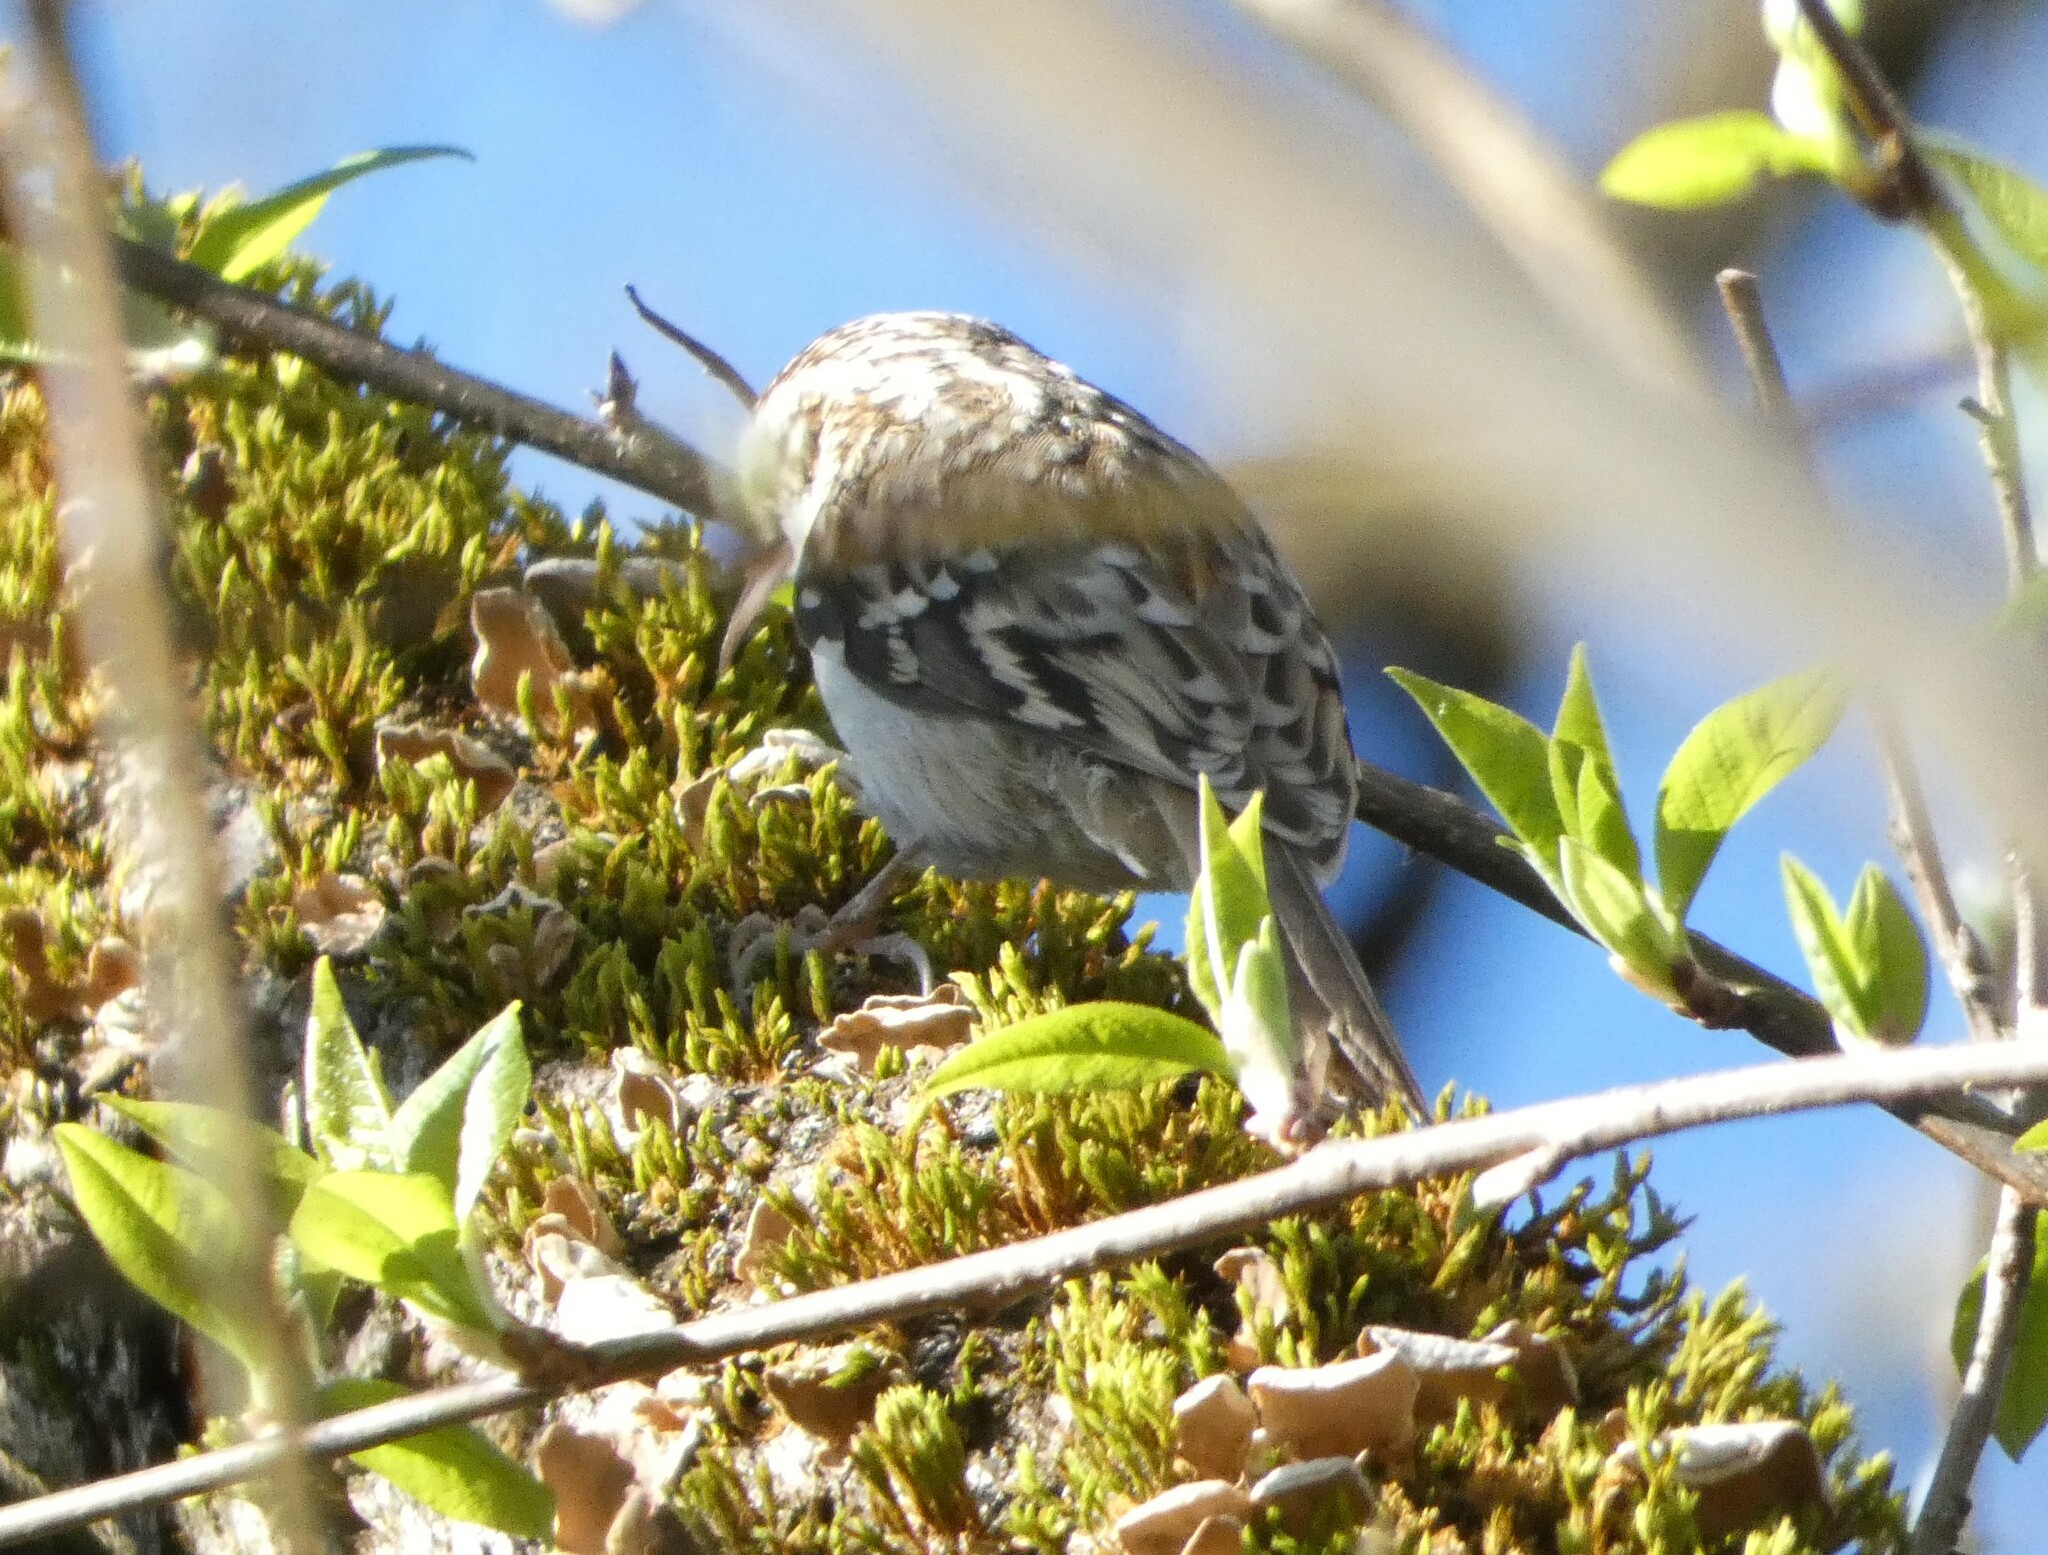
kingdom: Animalia
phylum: Chordata
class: Aves
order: Passeriformes
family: Certhiidae
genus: Certhia
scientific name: Certhia familiaris
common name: Eurasian treecreeper
